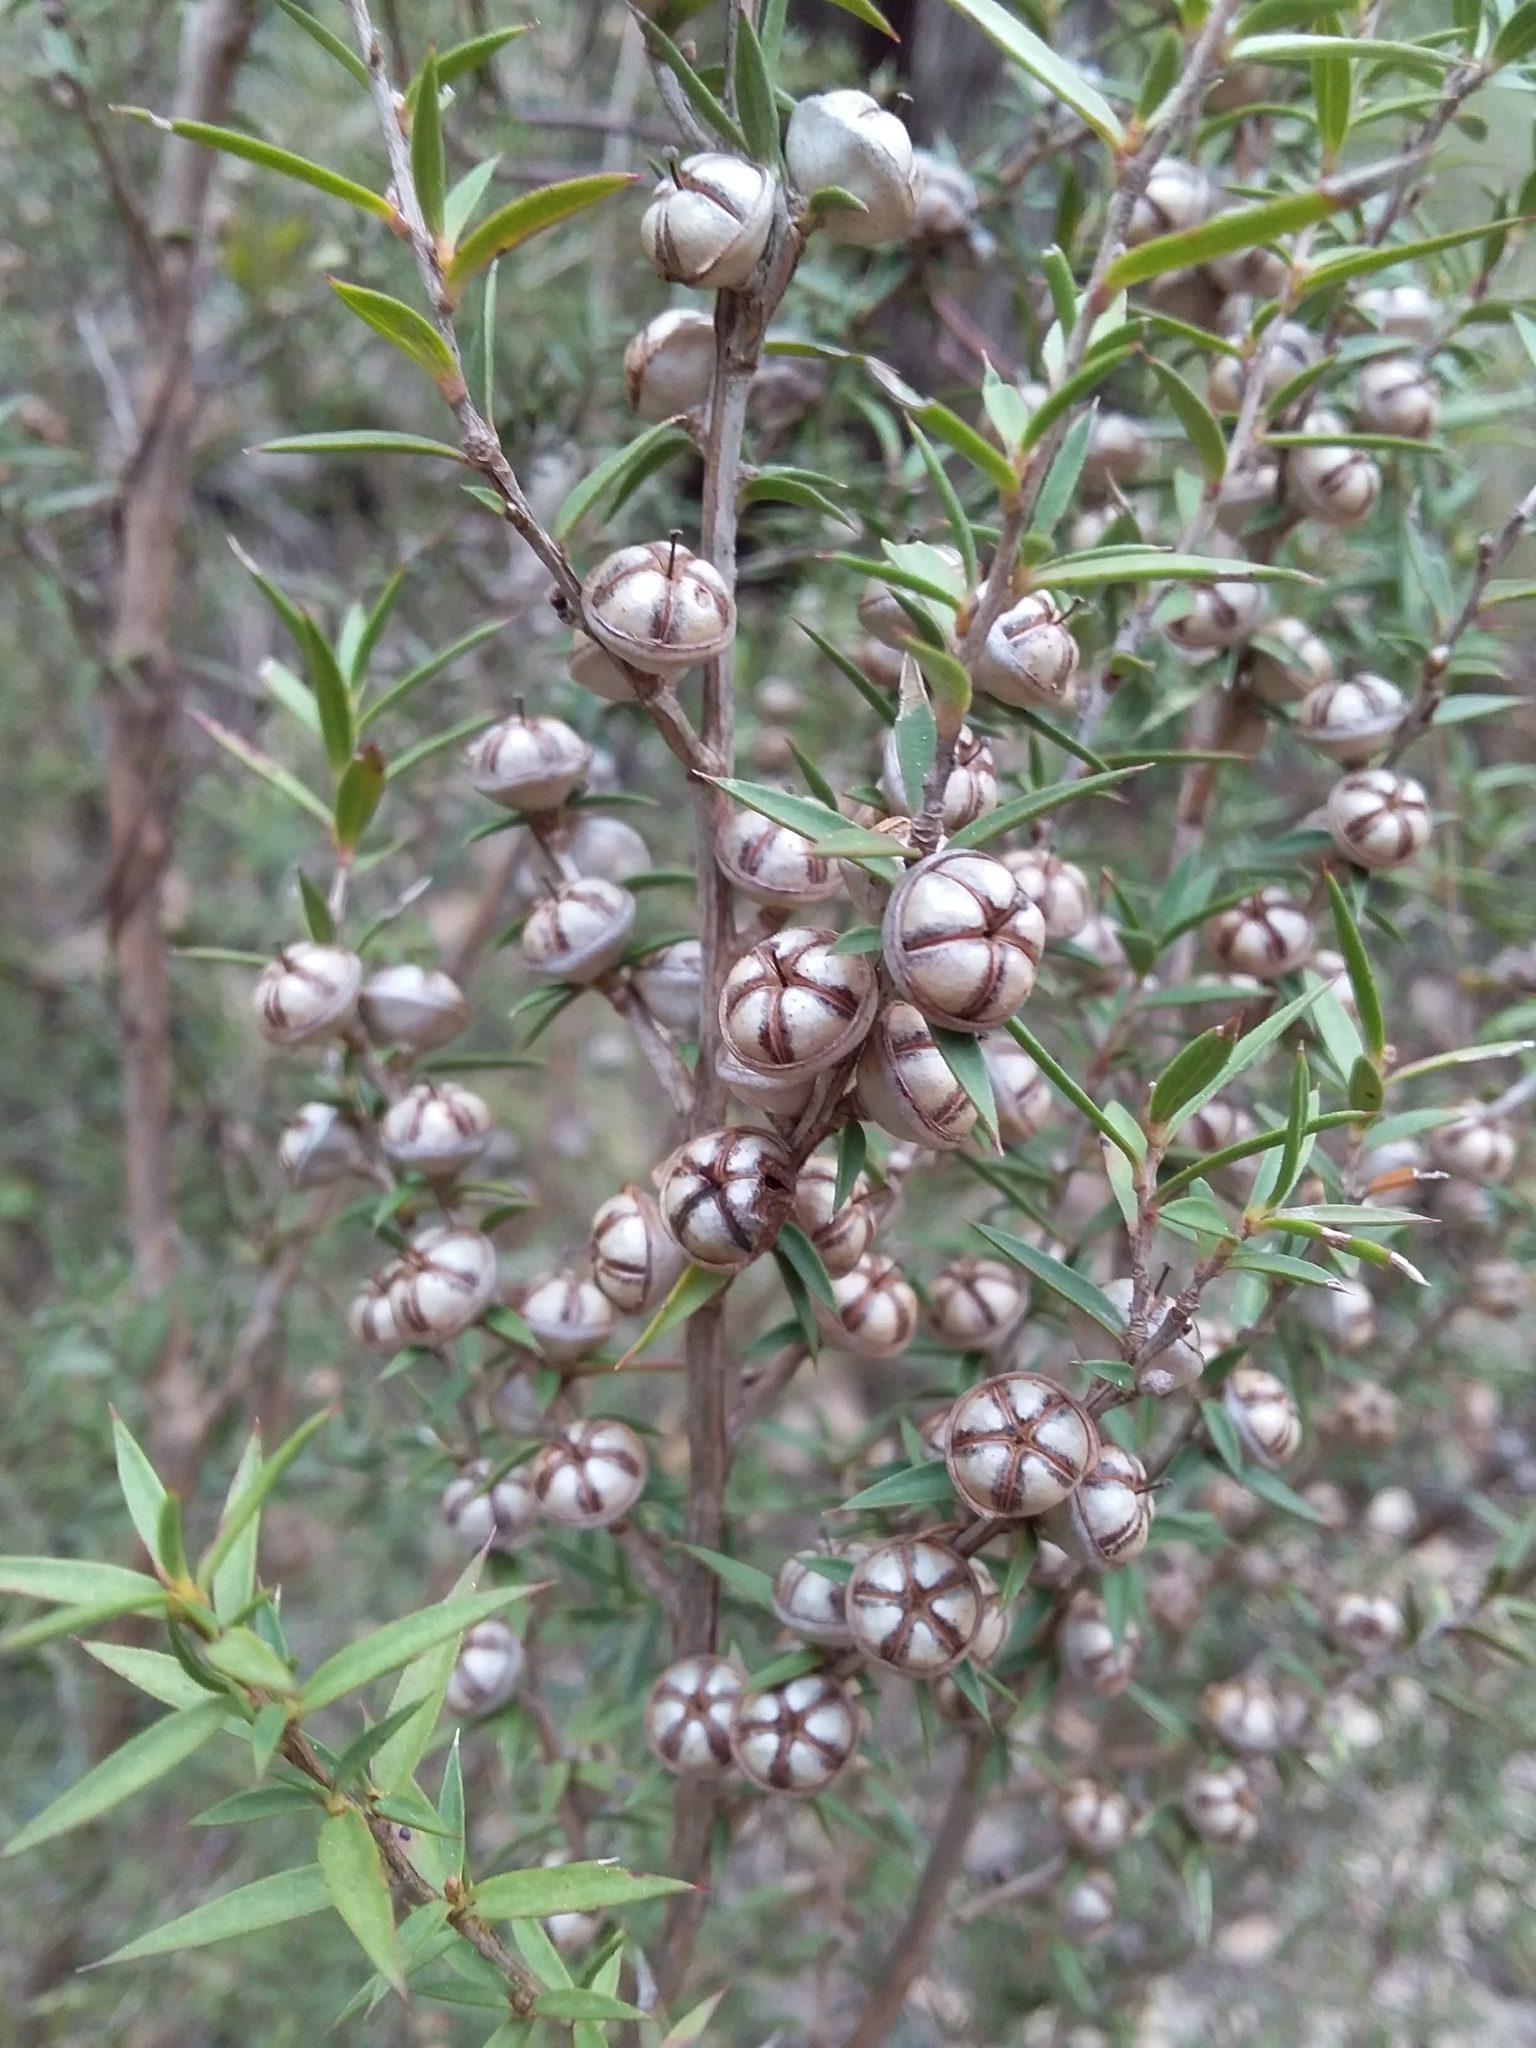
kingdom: Plantae
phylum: Tracheophyta
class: Magnoliopsida
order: Myrtales
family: Myrtaceae
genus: Leptospermum
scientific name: Leptospermum continentale
